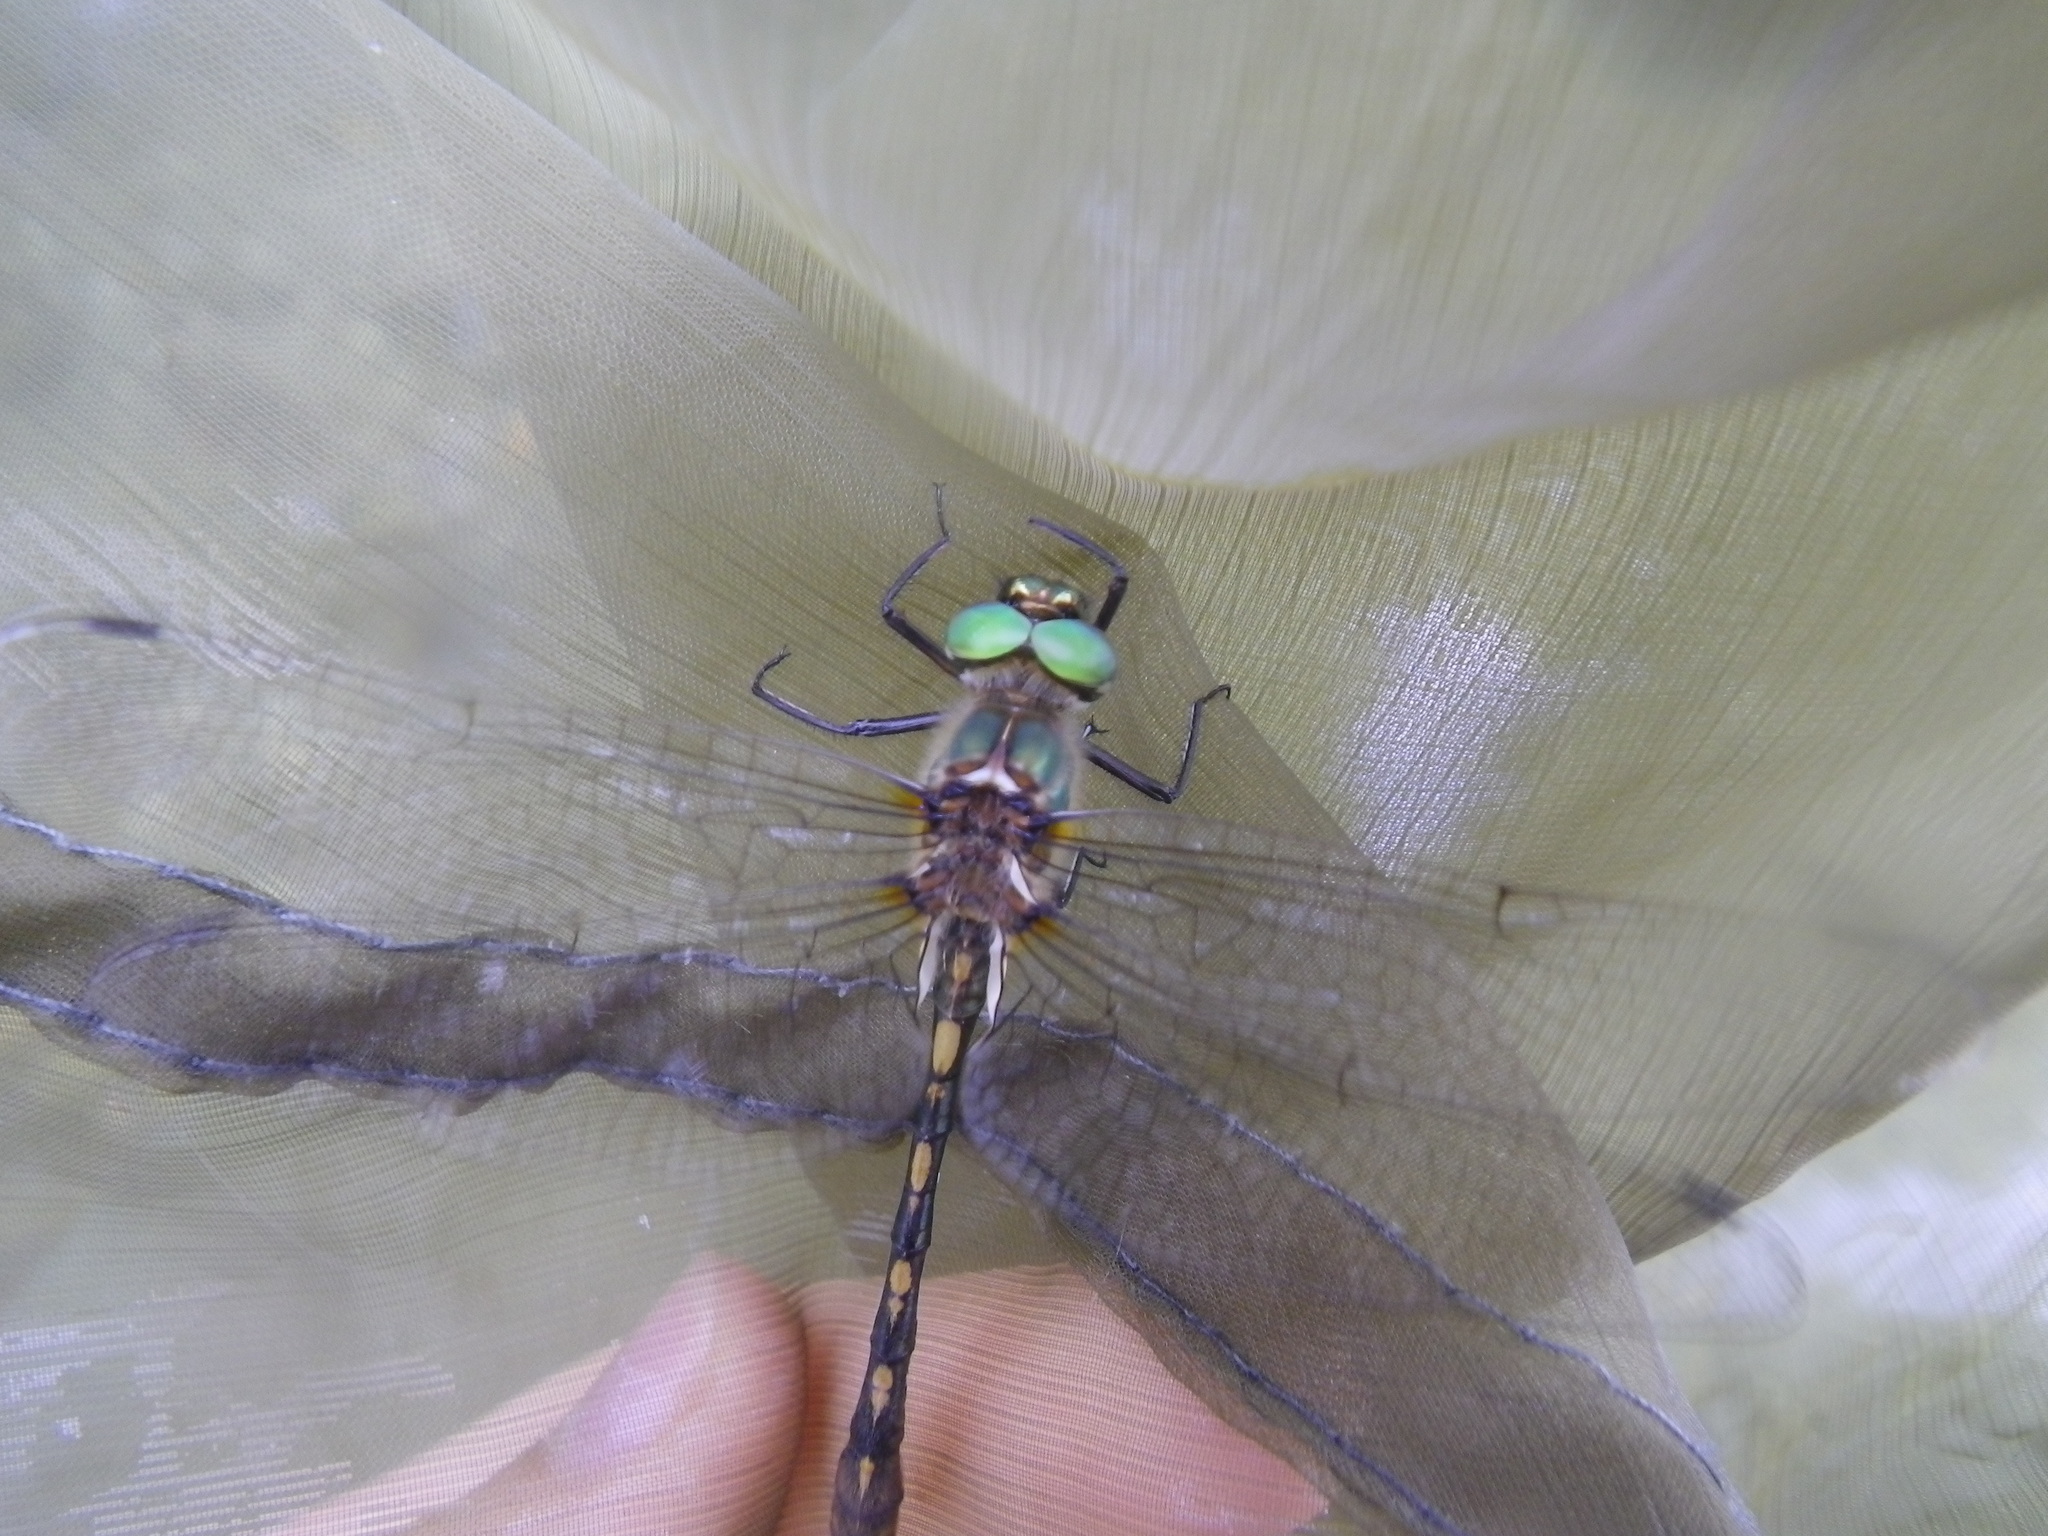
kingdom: Animalia
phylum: Arthropoda
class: Insecta
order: Odonata
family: Corduliidae
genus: Oxygastra
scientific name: Oxygastra curtisii
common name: Orange-spotted emerald
